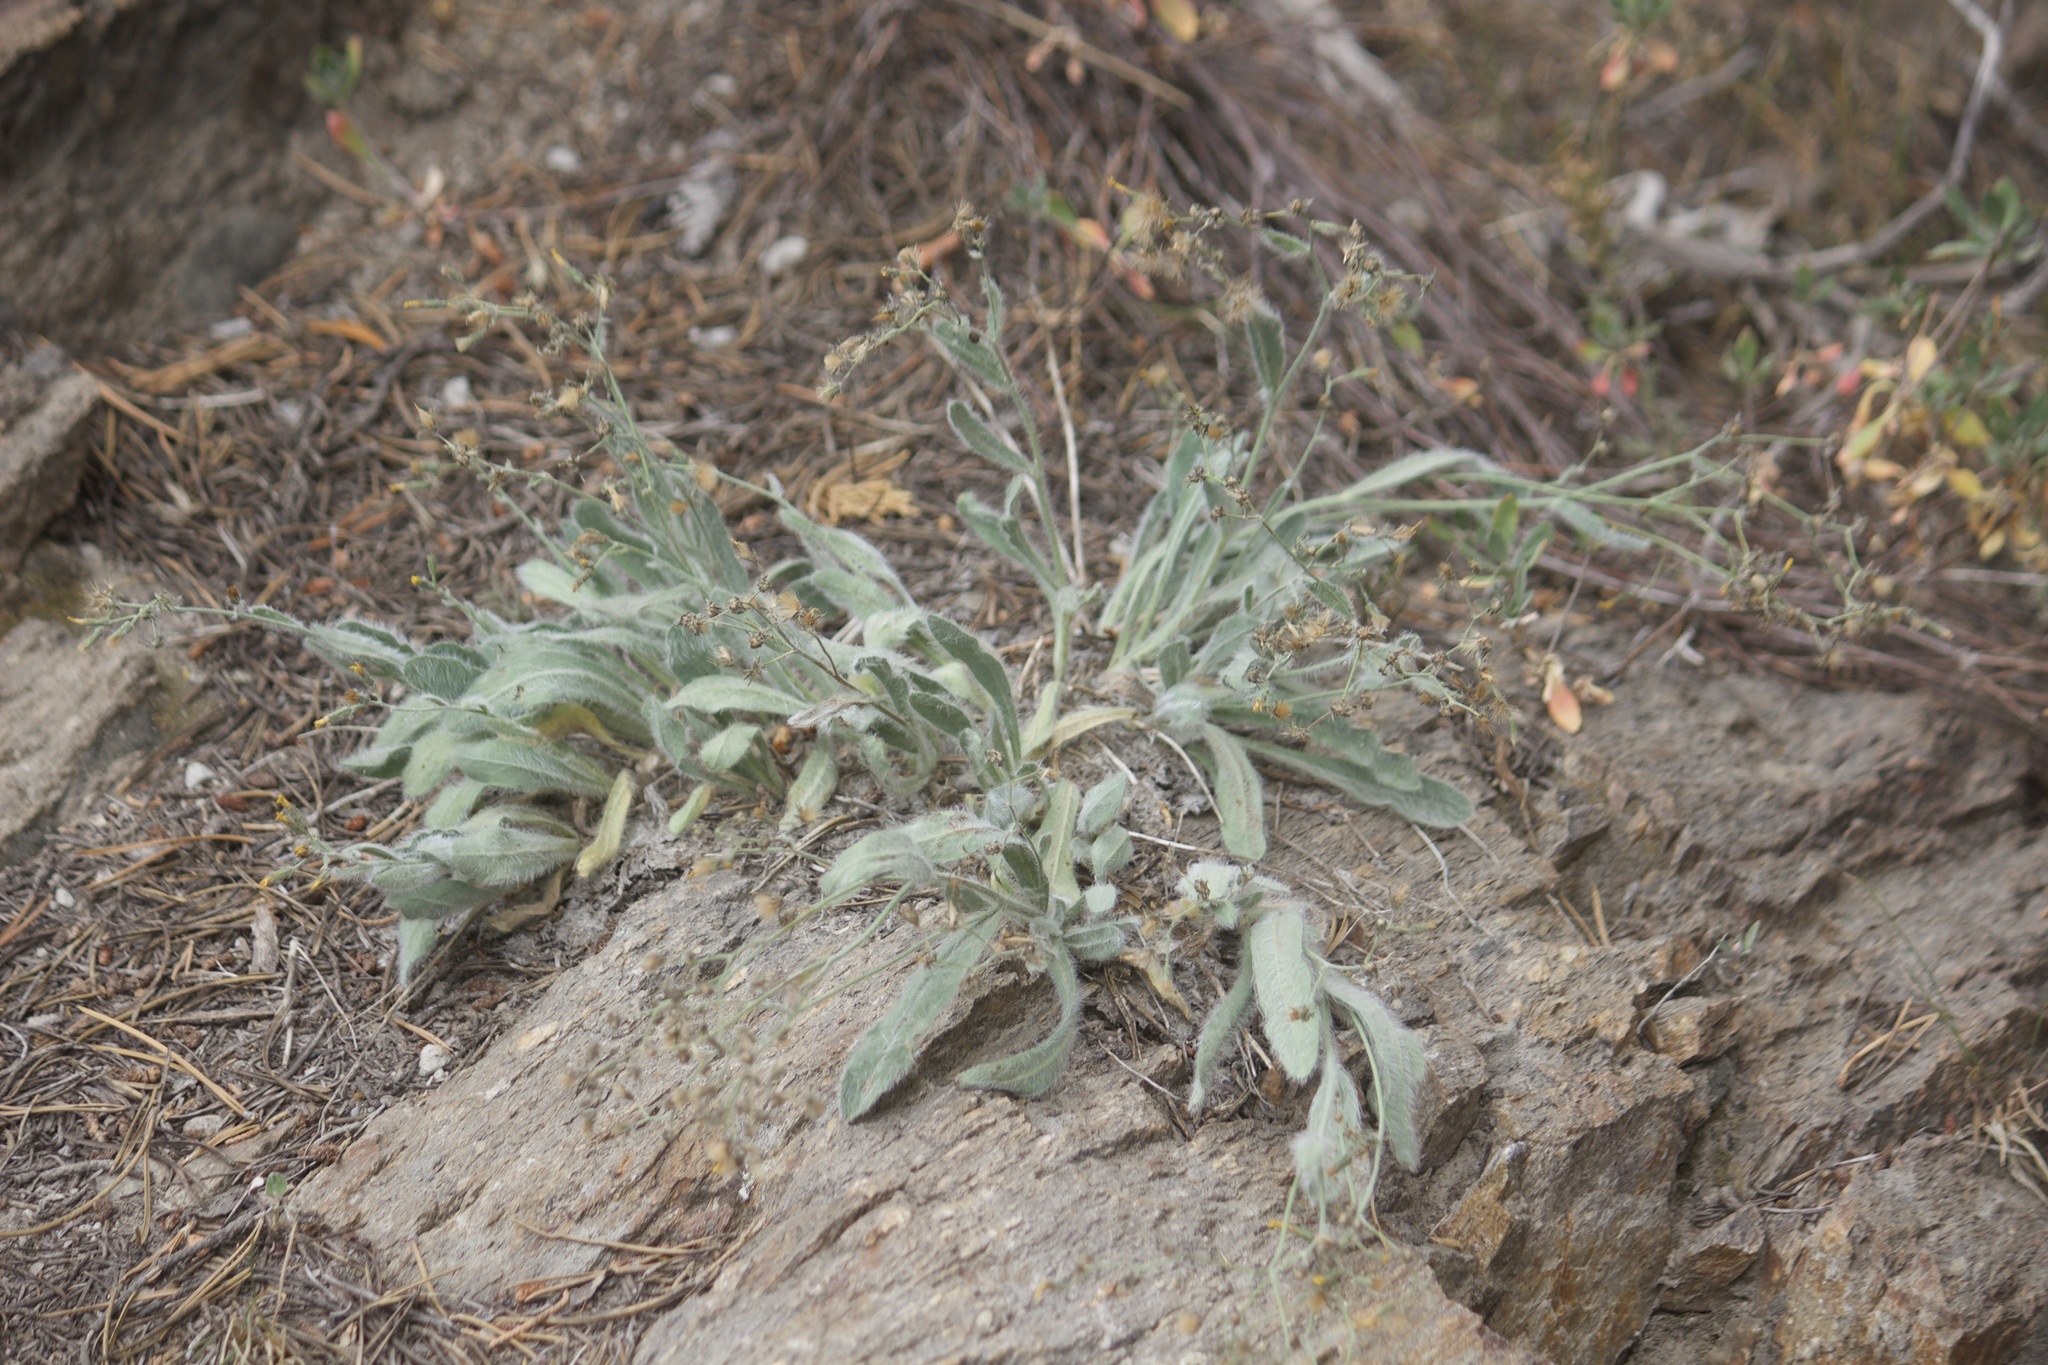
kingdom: Plantae
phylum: Tracheophyta
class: Magnoliopsida
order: Asterales
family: Asteraceae
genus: Hieracium
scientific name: Hieracium horridum
